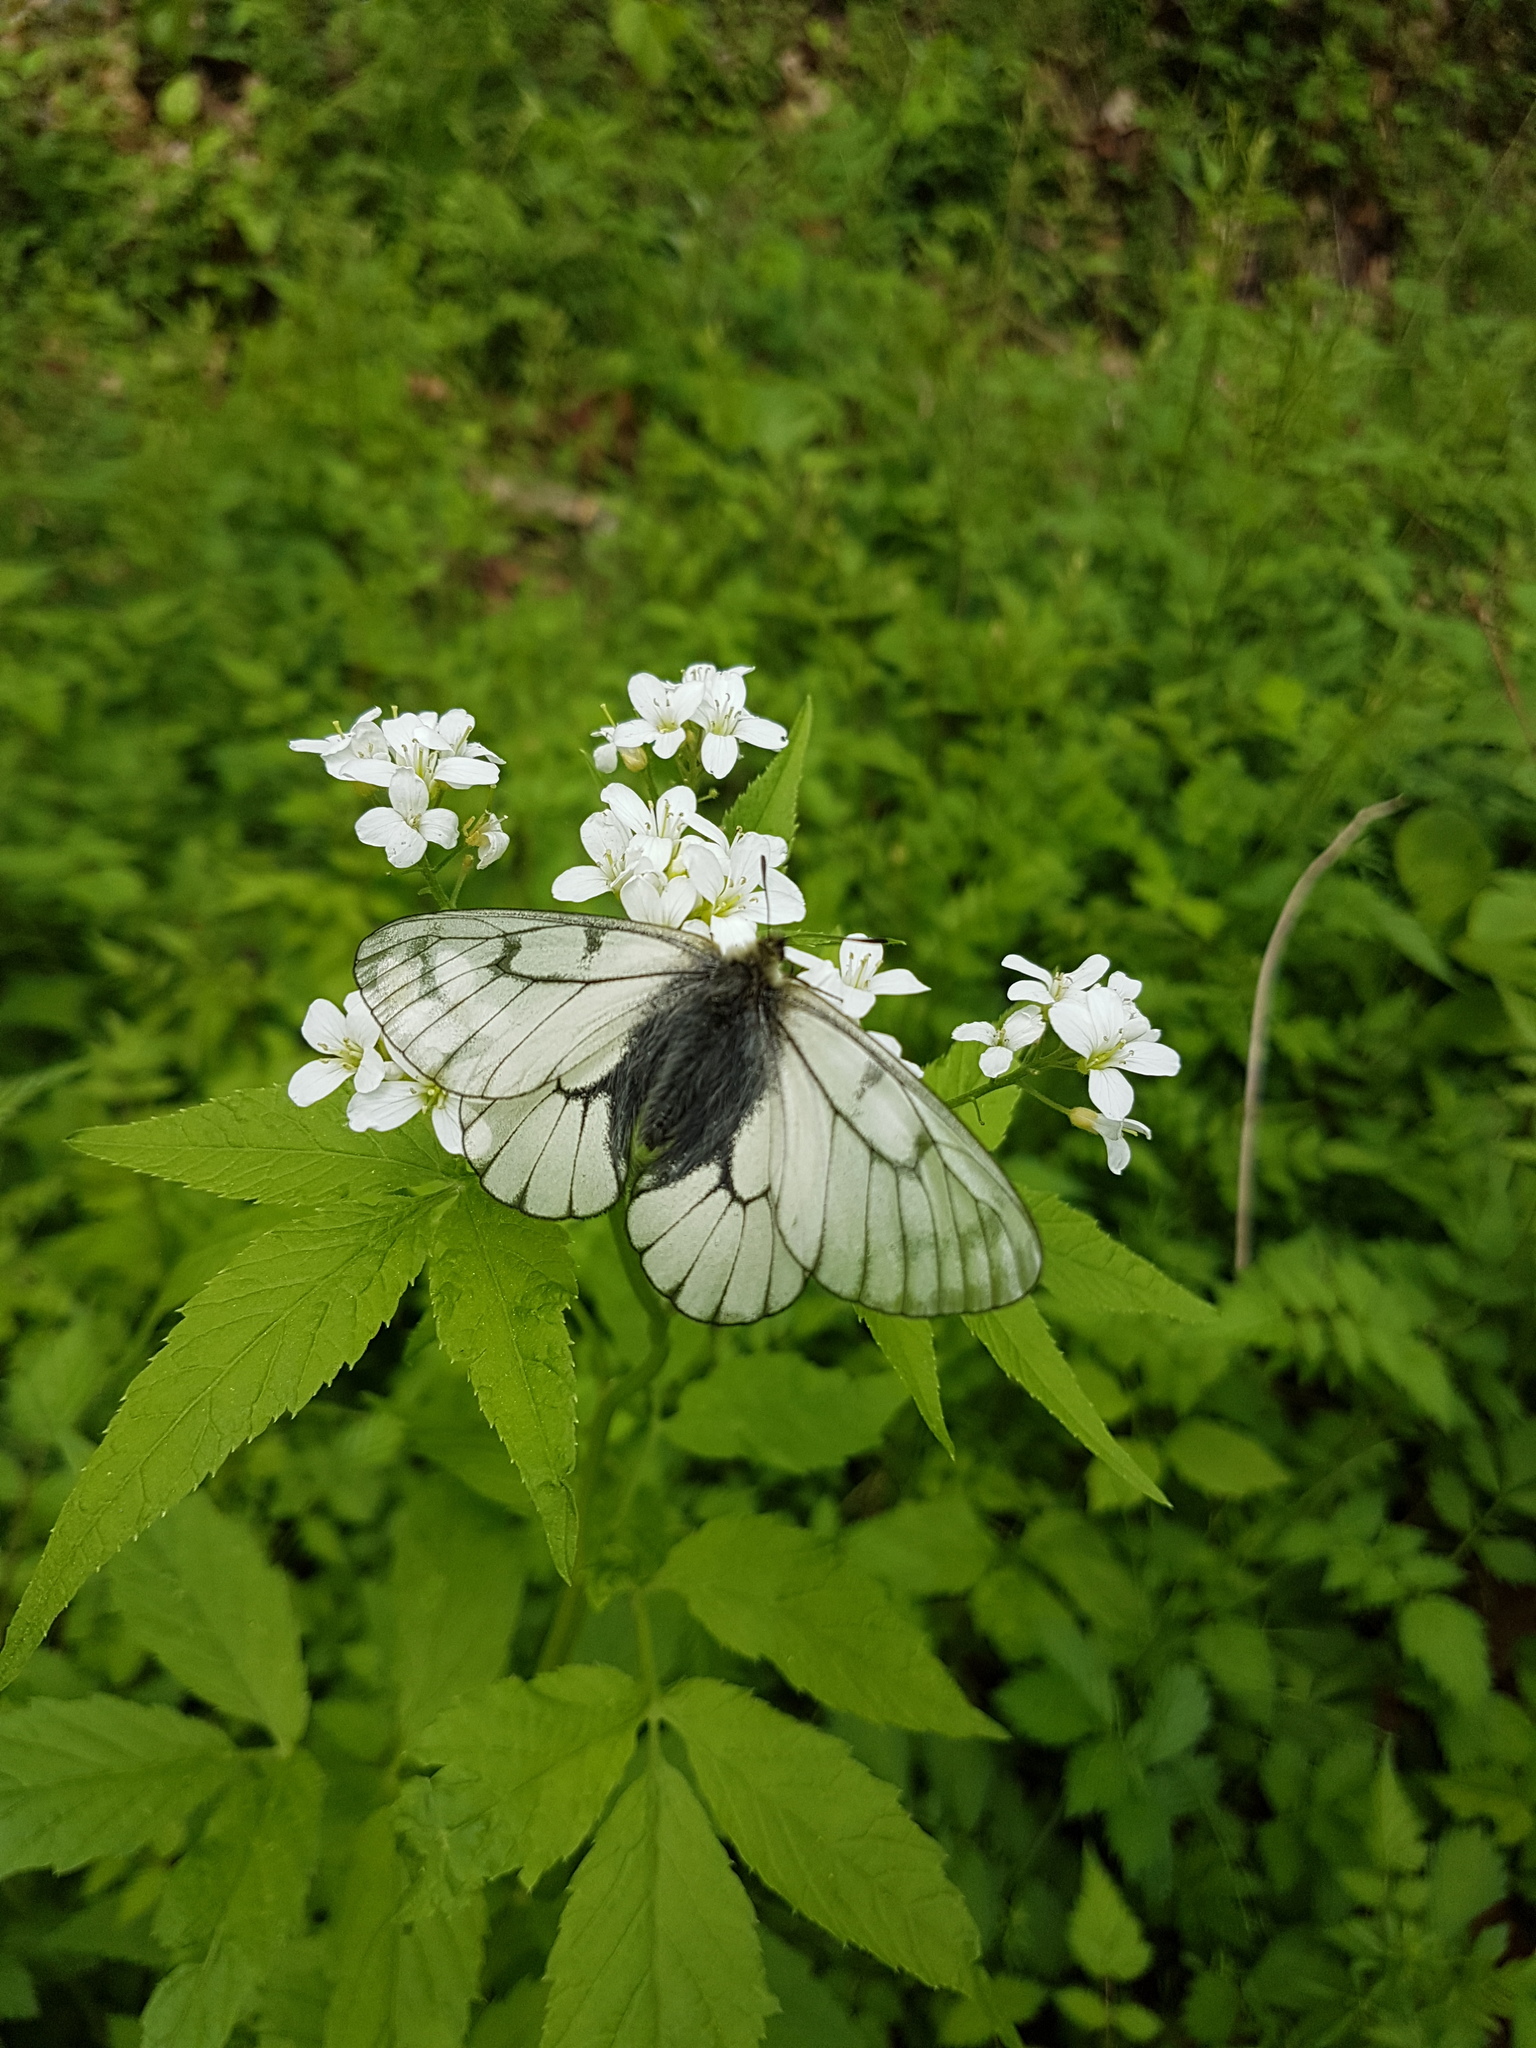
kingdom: Animalia
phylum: Arthropoda
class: Insecta
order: Lepidoptera
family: Papilionidae
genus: Parnassius
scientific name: Parnassius stubbendorfii
